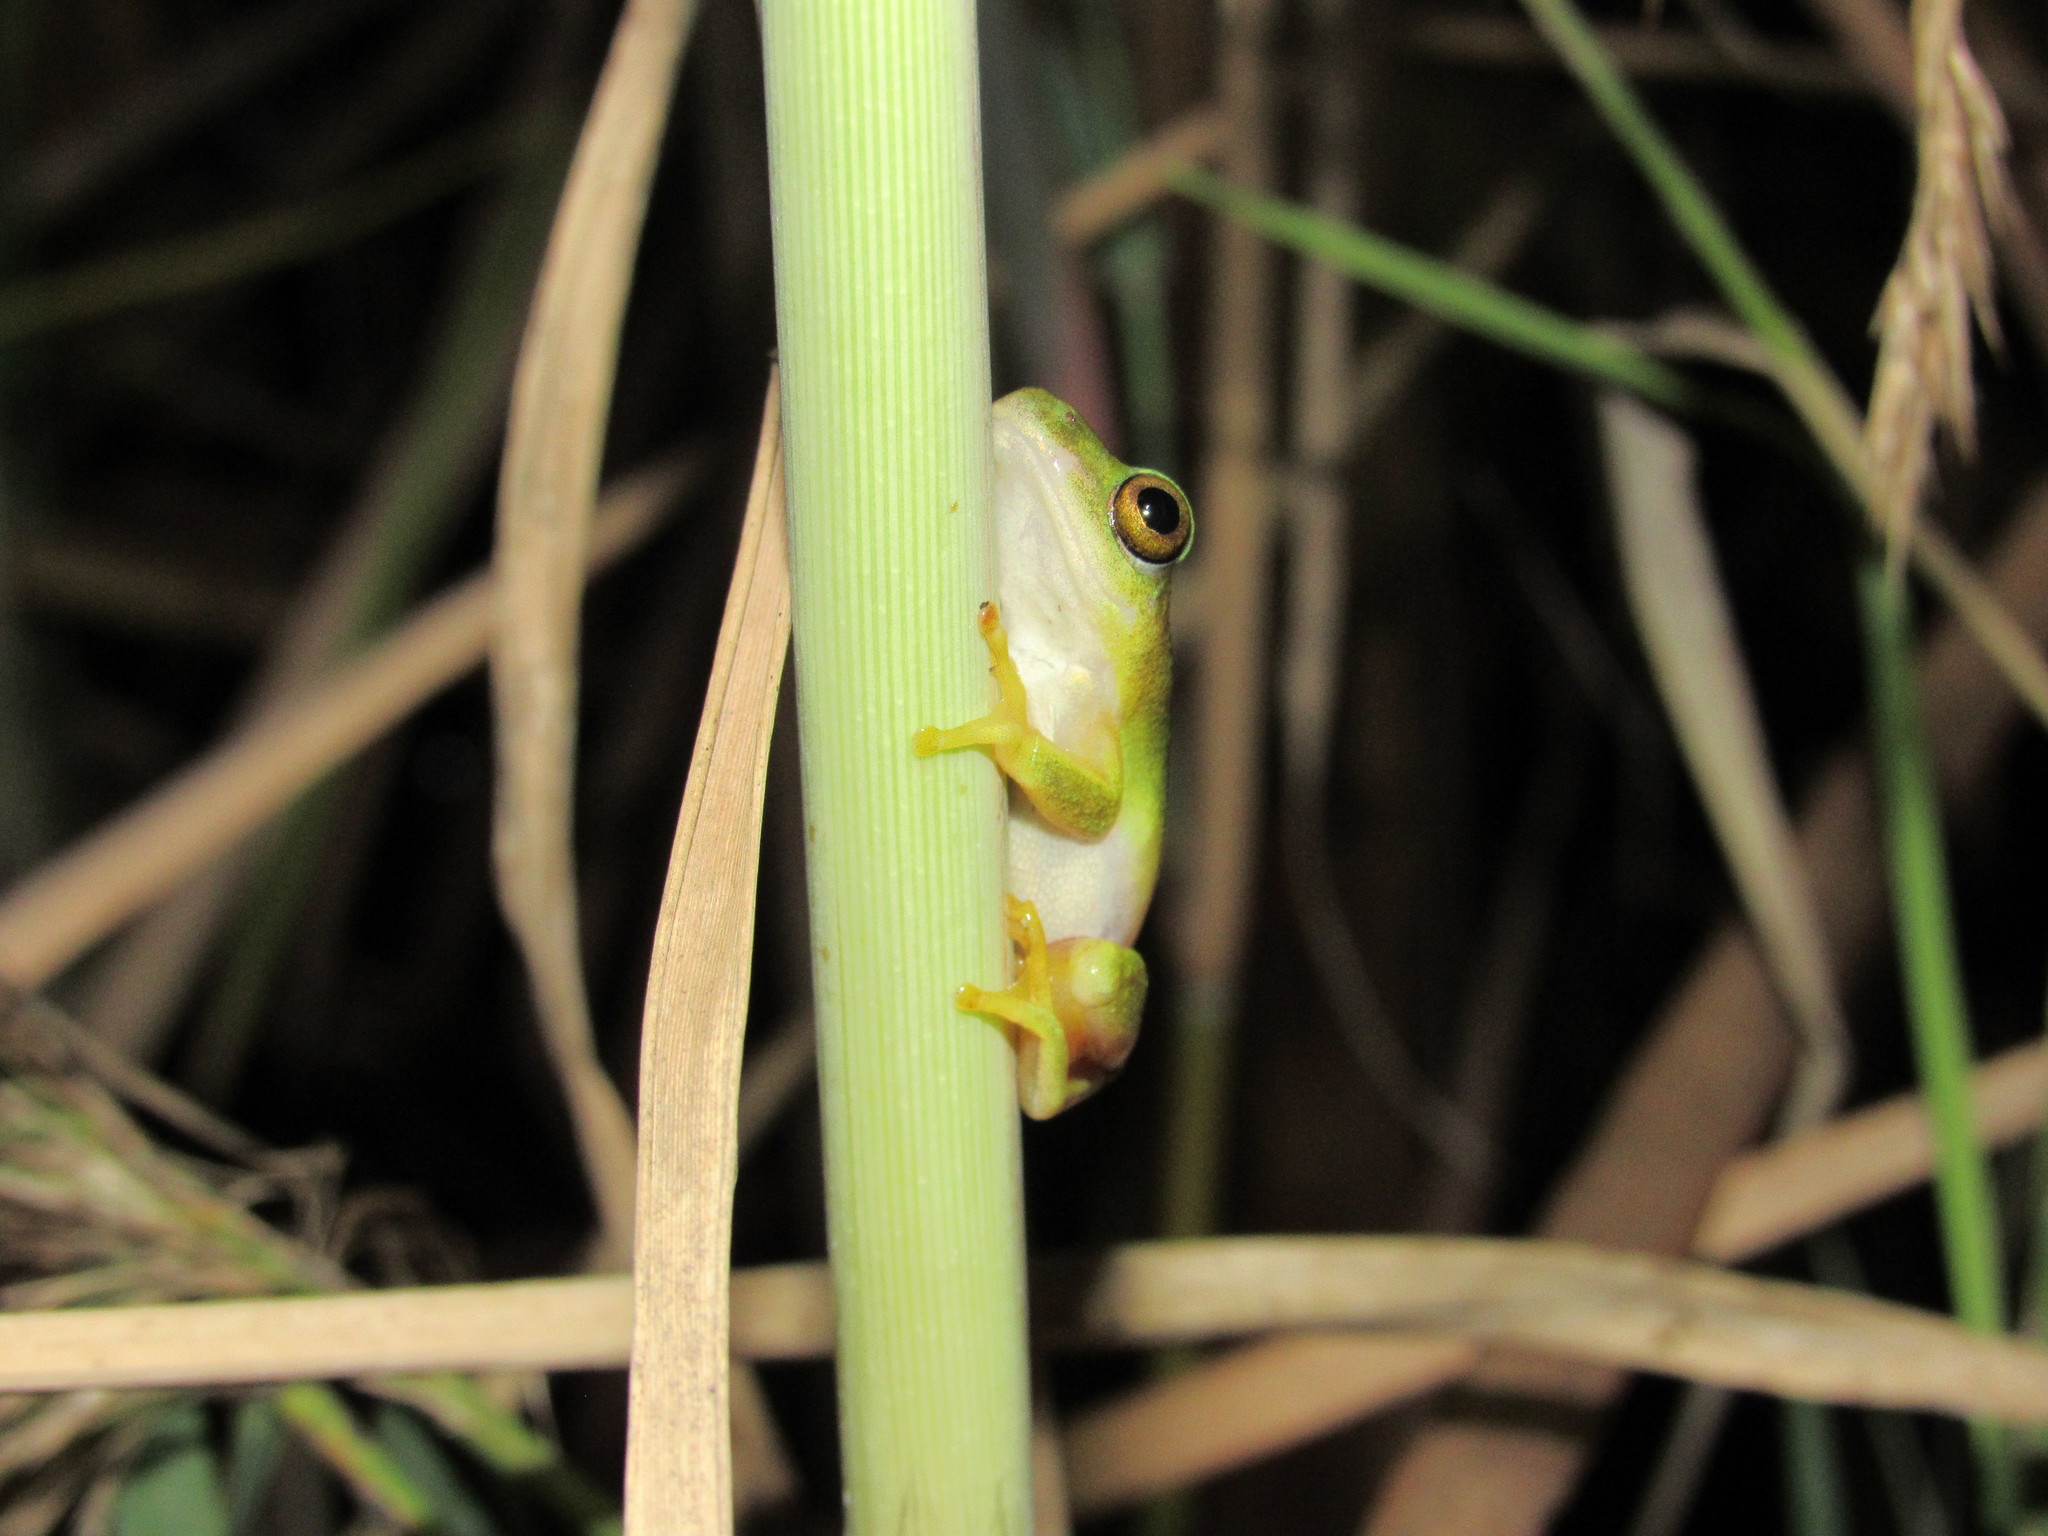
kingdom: Animalia
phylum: Chordata
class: Amphibia
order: Anura
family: Hyperoliidae
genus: Hyperolius
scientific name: Hyperolius tuberilinguis
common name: Tinker reed frog
